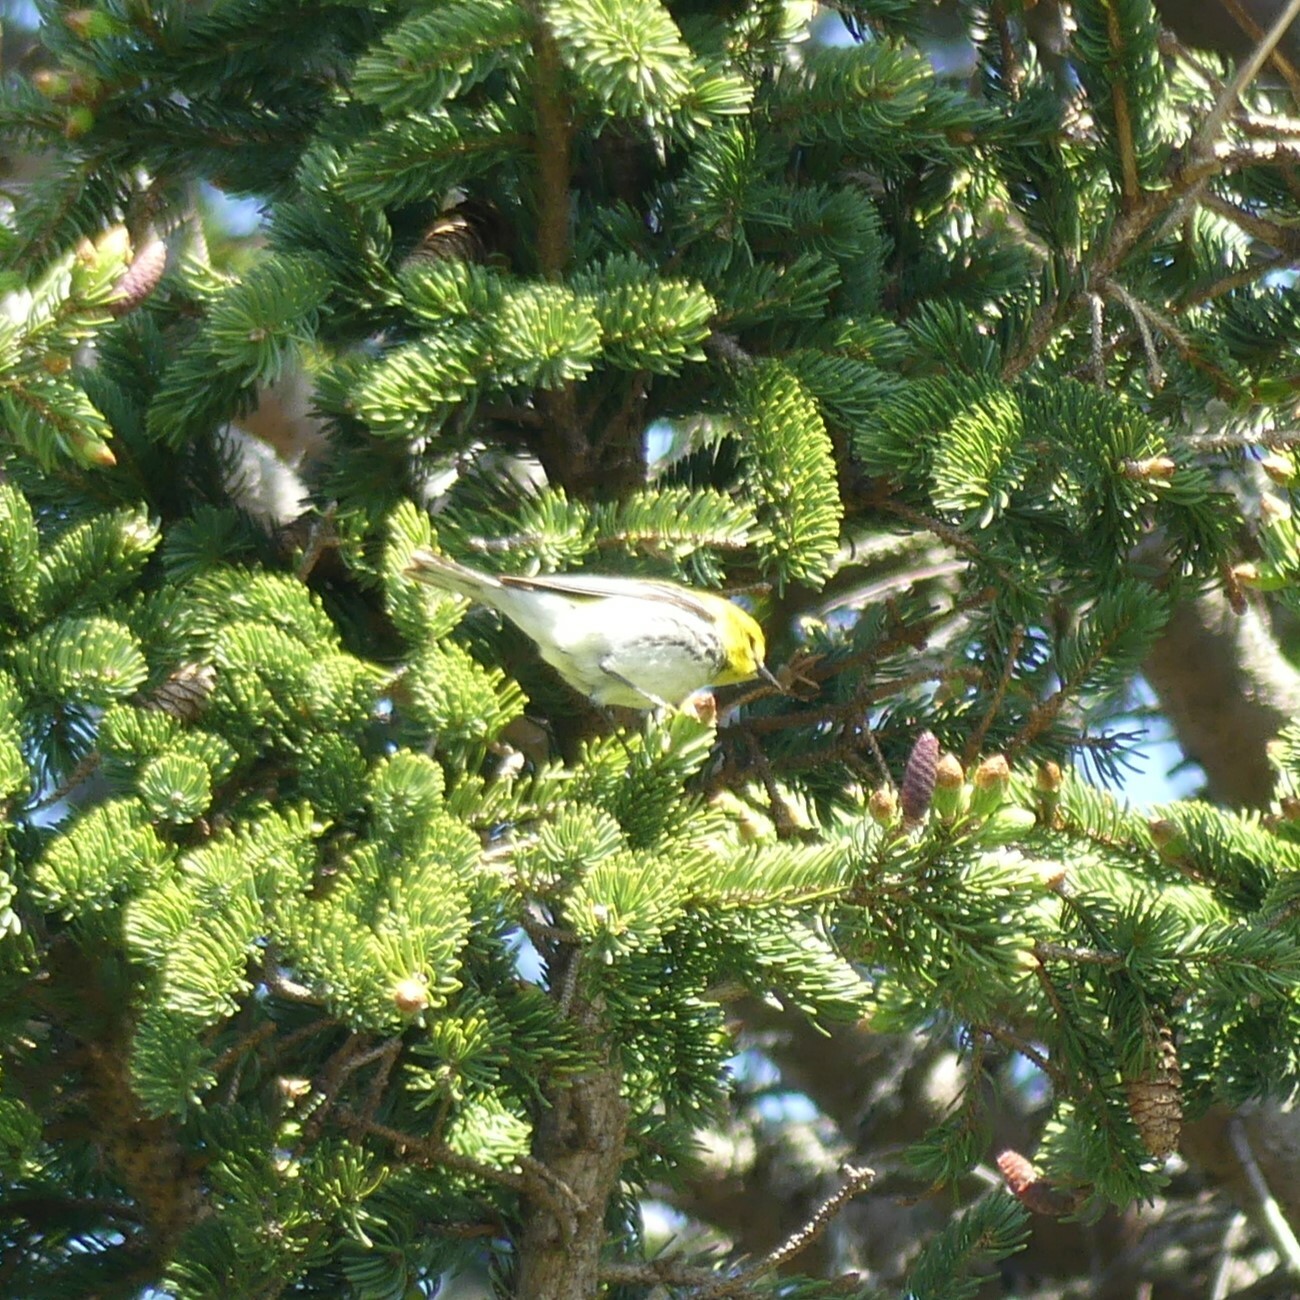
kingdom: Animalia
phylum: Chordata
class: Aves
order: Passeriformes
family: Parulidae
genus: Setophaga
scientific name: Setophaga virens
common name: Black-throated green warbler
